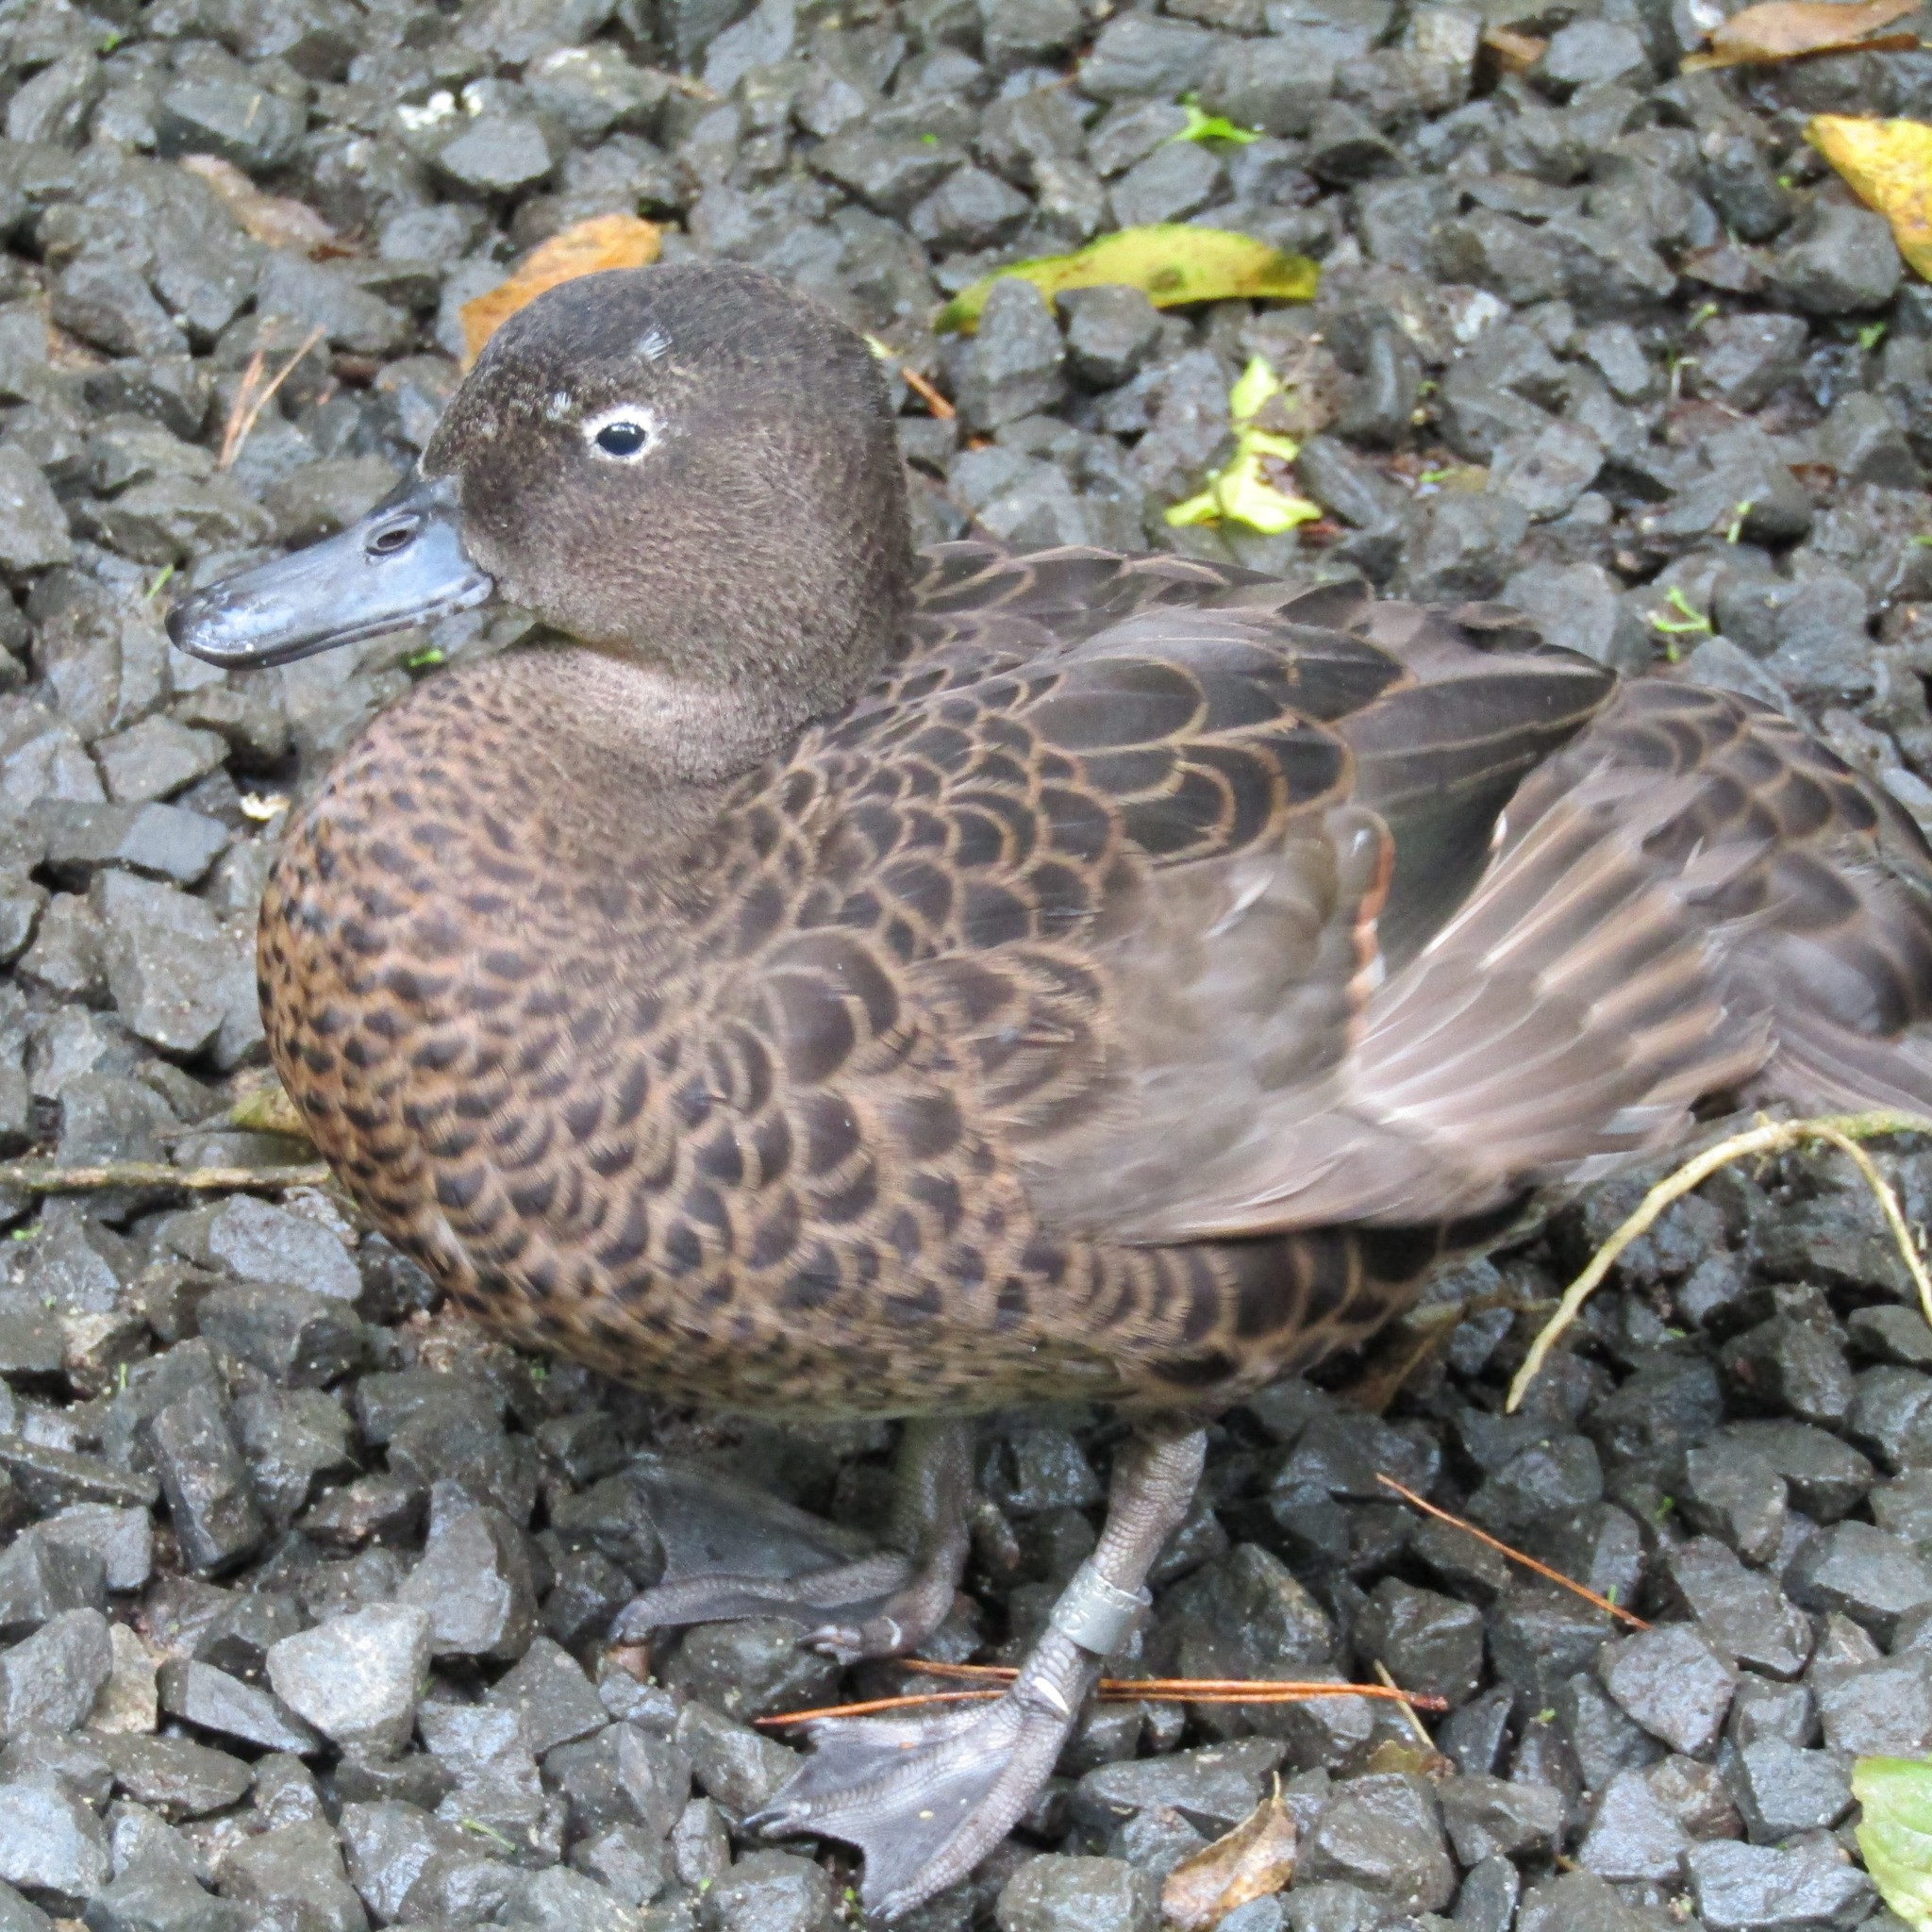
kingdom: Animalia
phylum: Chordata
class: Aves
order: Anseriformes
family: Anatidae
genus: Anas
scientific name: Anas chlorotis
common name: Brown teal
